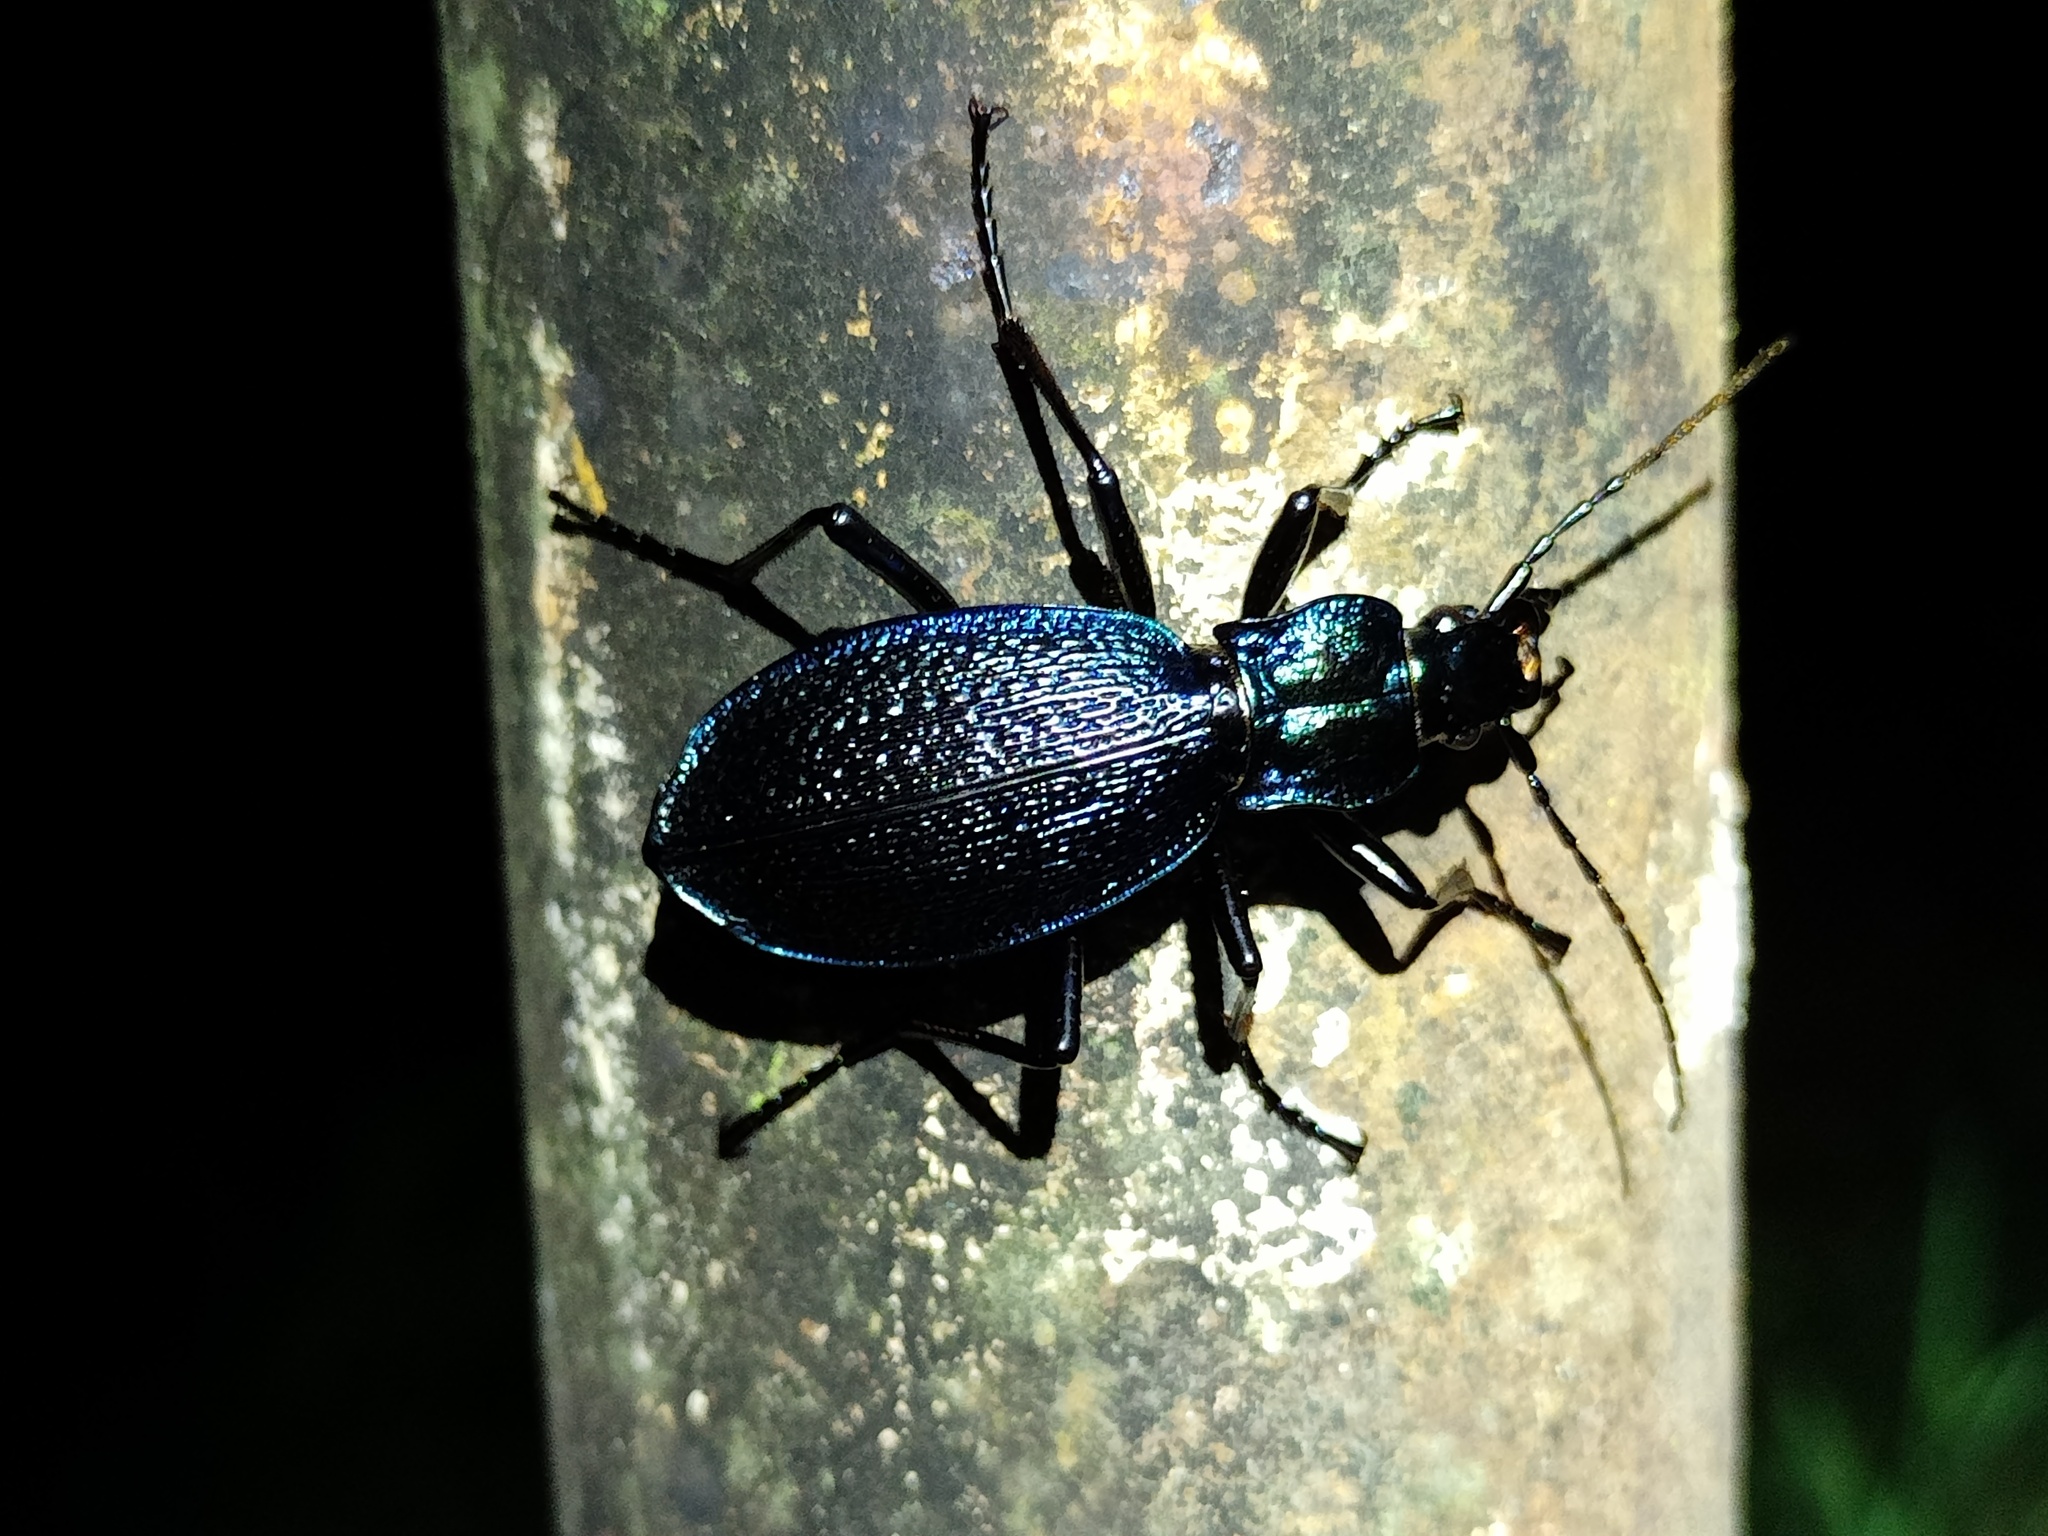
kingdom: Animalia
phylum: Arthropoda
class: Insecta
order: Coleoptera
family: Carabidae
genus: Carabus
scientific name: Carabus intricatus
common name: Blue ground beetle
